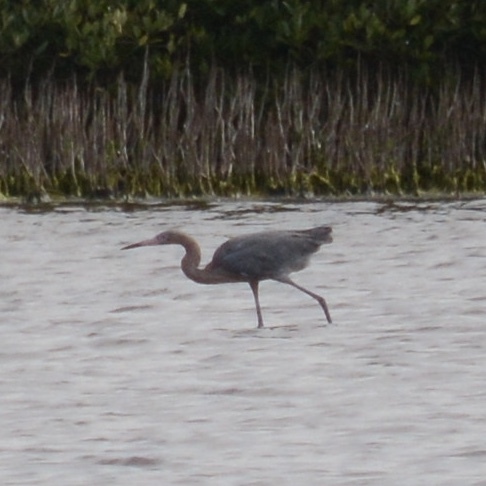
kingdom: Animalia
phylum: Chordata
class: Aves
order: Pelecaniformes
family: Ardeidae
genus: Egretta
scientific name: Egretta rufescens
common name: Reddish egret
